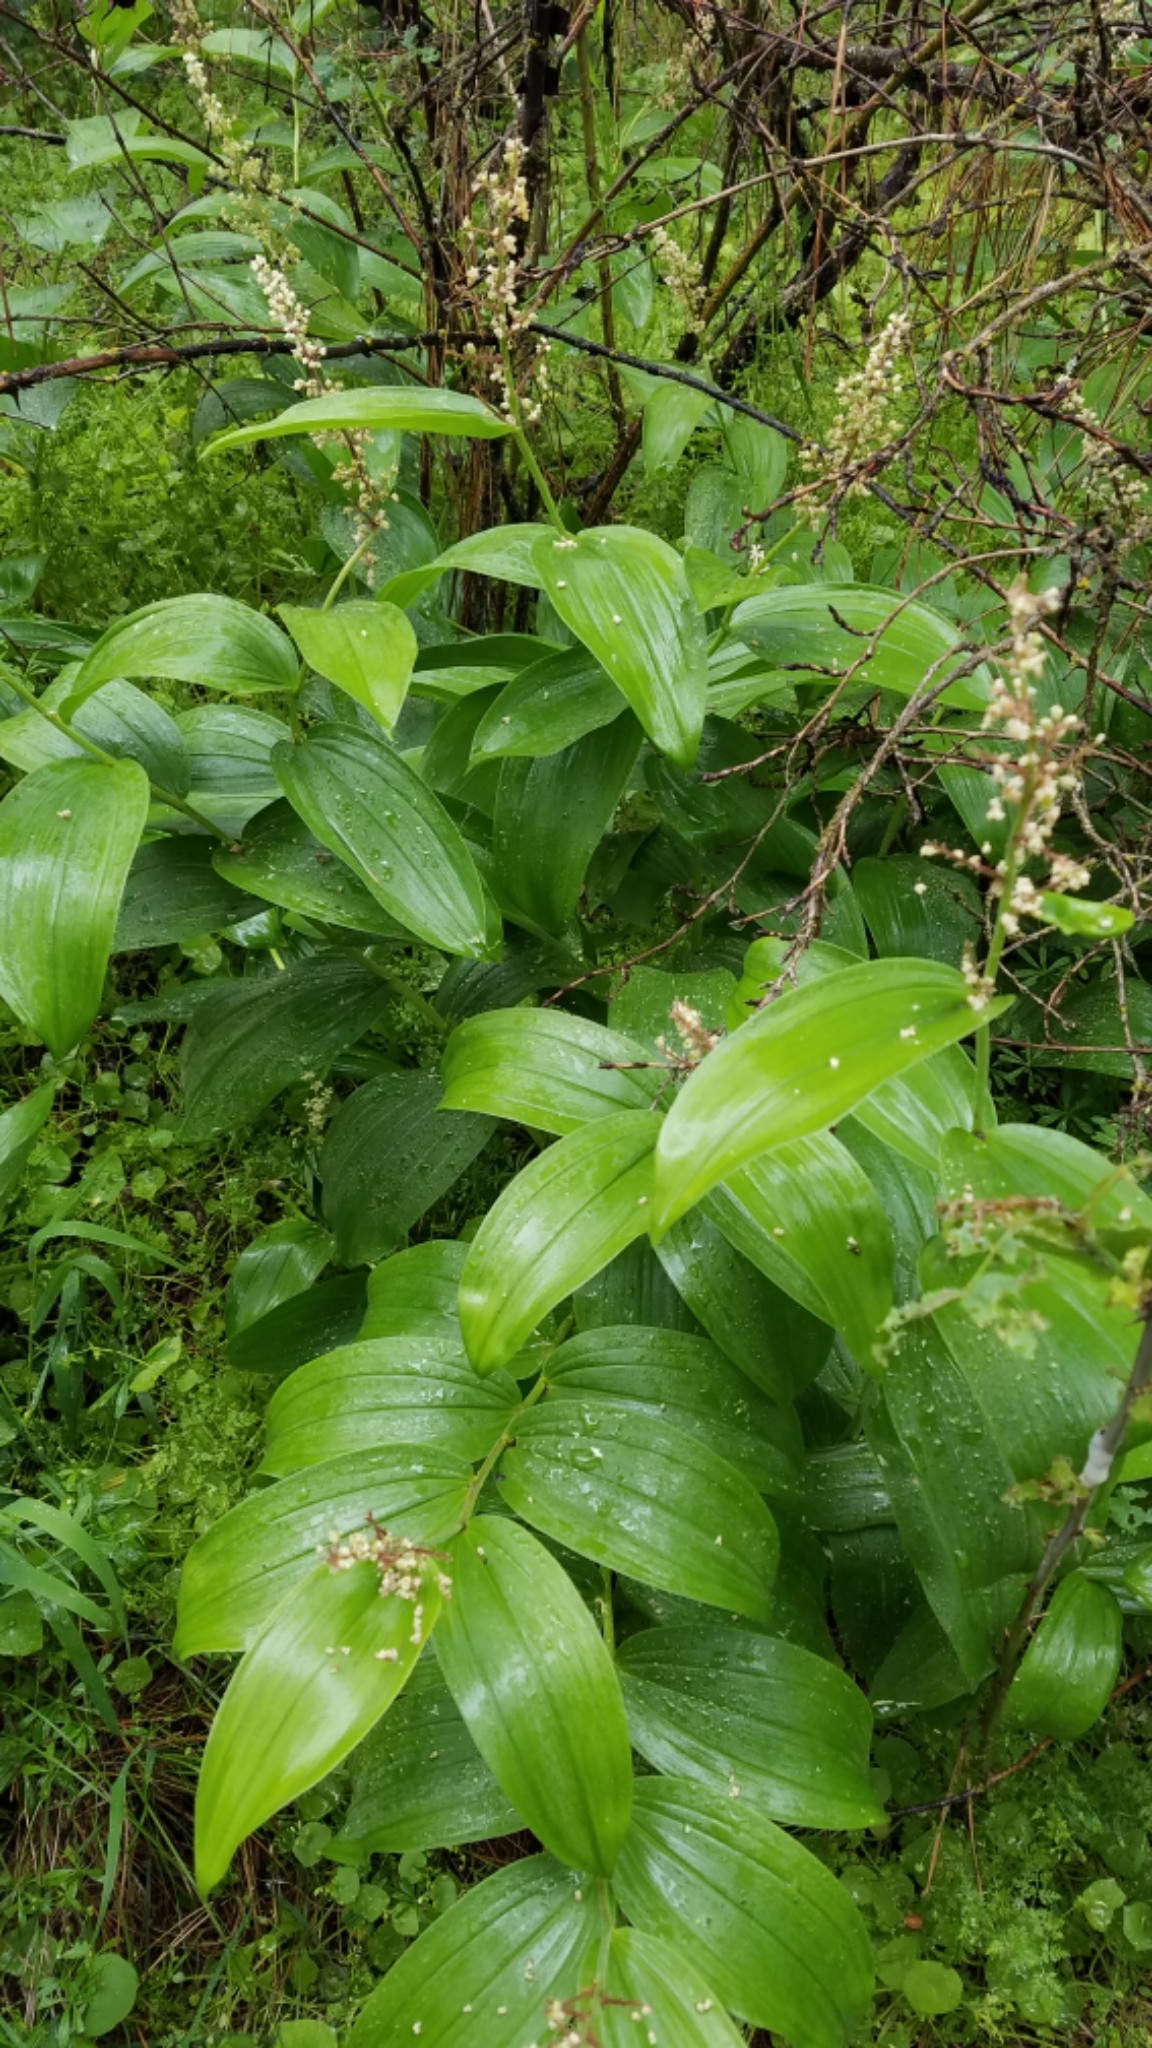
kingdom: Plantae
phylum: Tracheophyta
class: Liliopsida
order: Asparagales
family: Asparagaceae
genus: Maianthemum
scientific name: Maianthemum racemosum
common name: False spikenard
